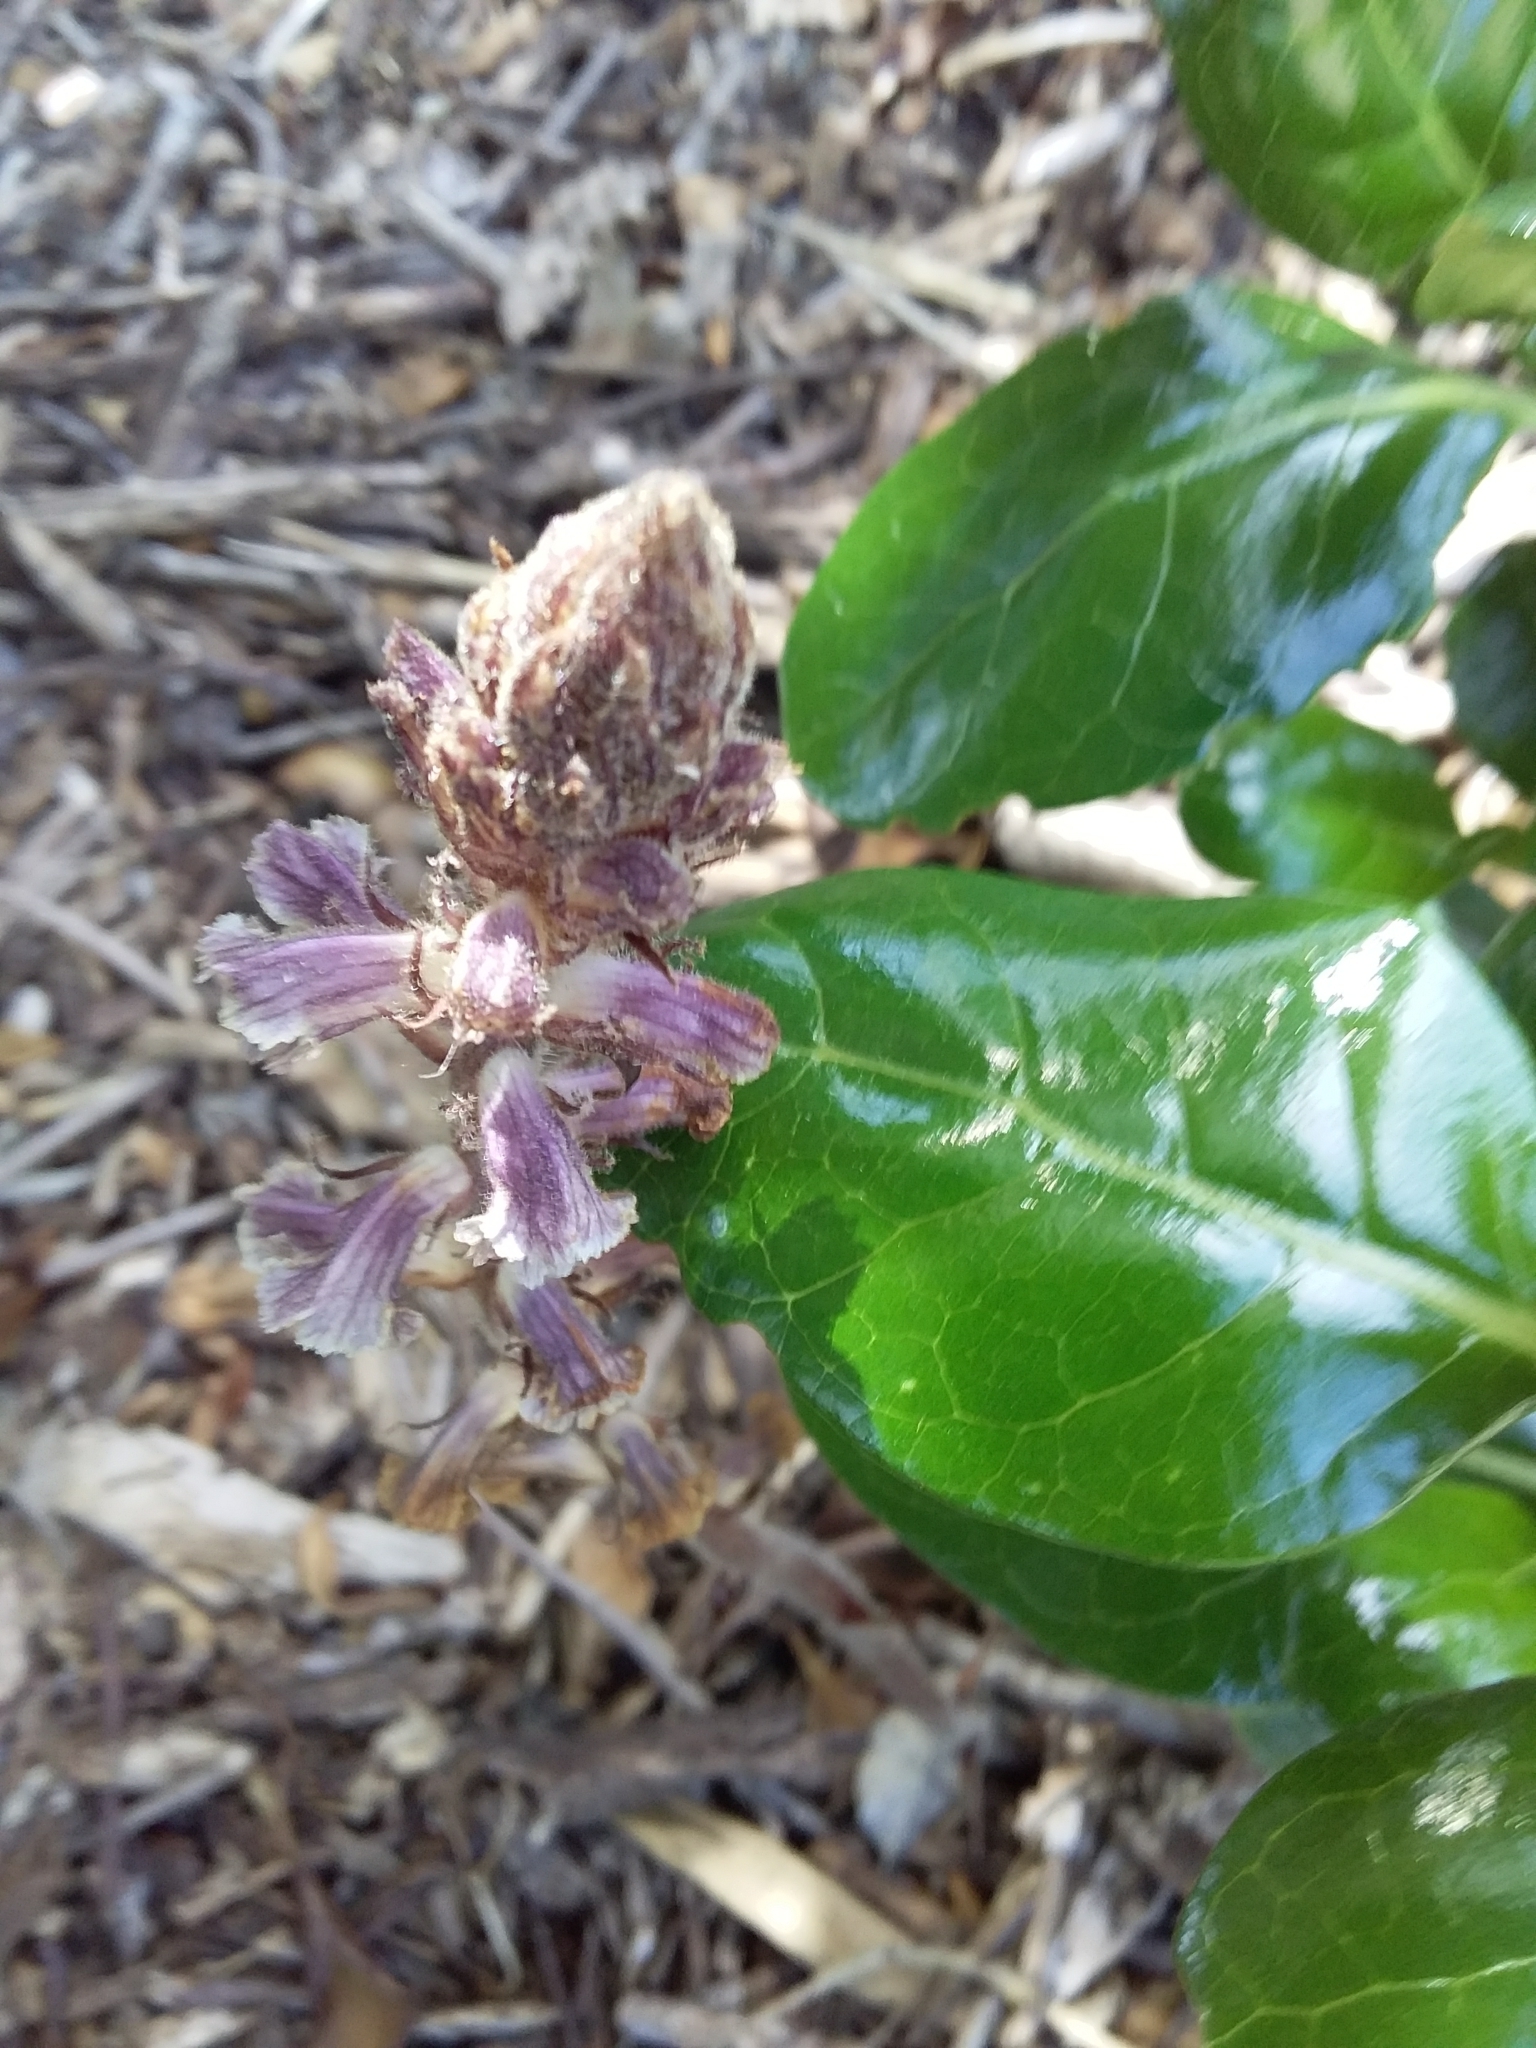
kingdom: Plantae
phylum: Tracheophyta
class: Magnoliopsida
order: Lamiales
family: Orobanchaceae
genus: Orobanche
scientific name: Orobanche minor
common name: Common broomrape
